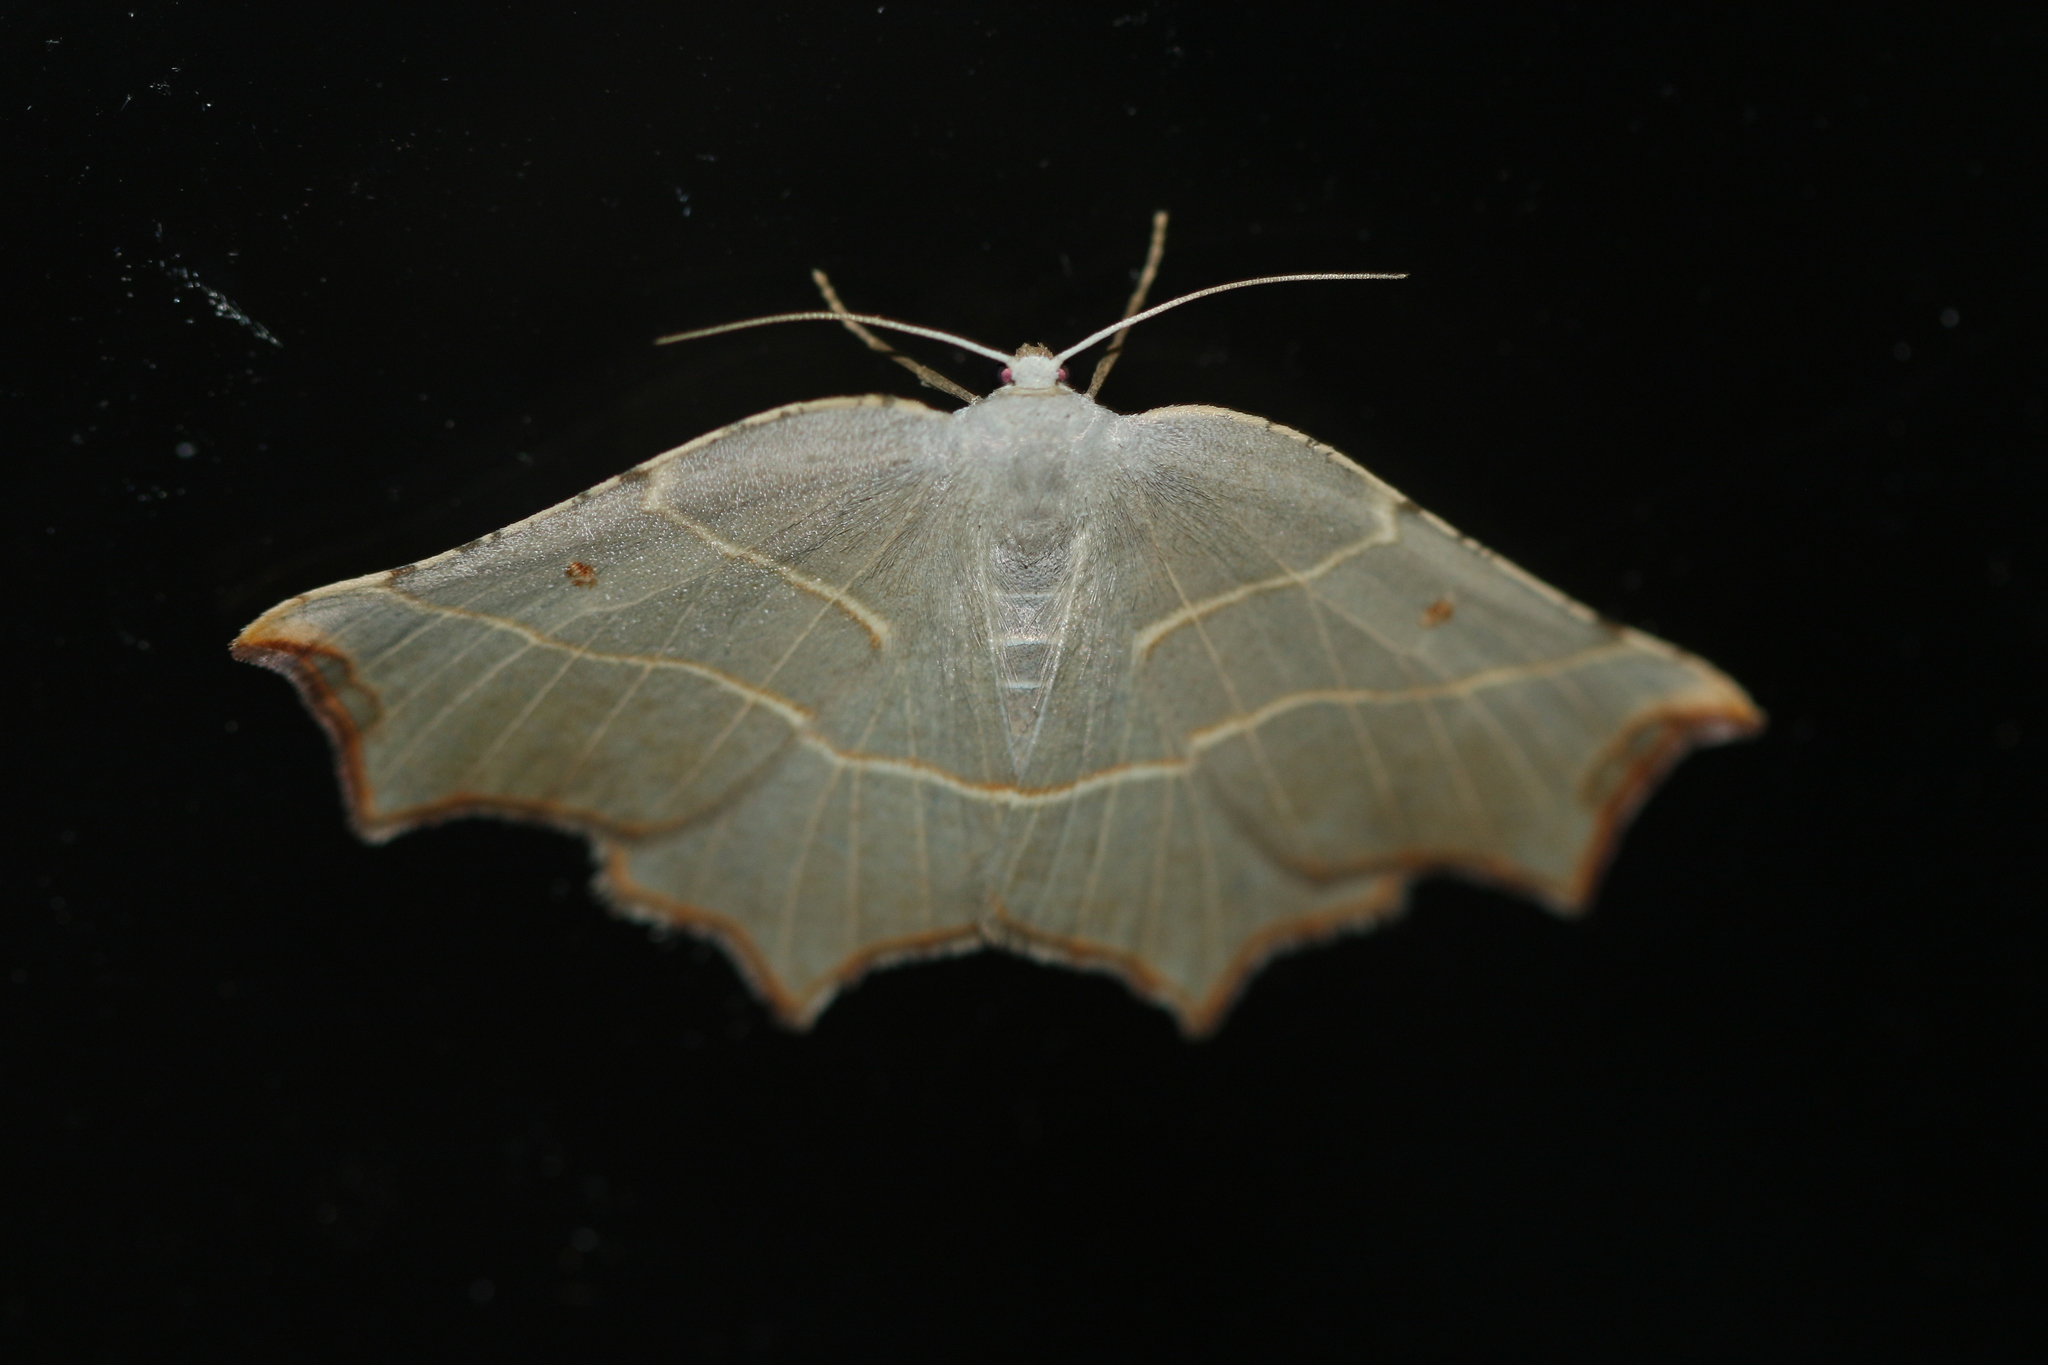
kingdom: Animalia
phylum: Arthropoda
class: Insecta
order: Lepidoptera
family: Geometridae
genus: Metanema
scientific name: Metanema inatomaria
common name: Pale metanema
